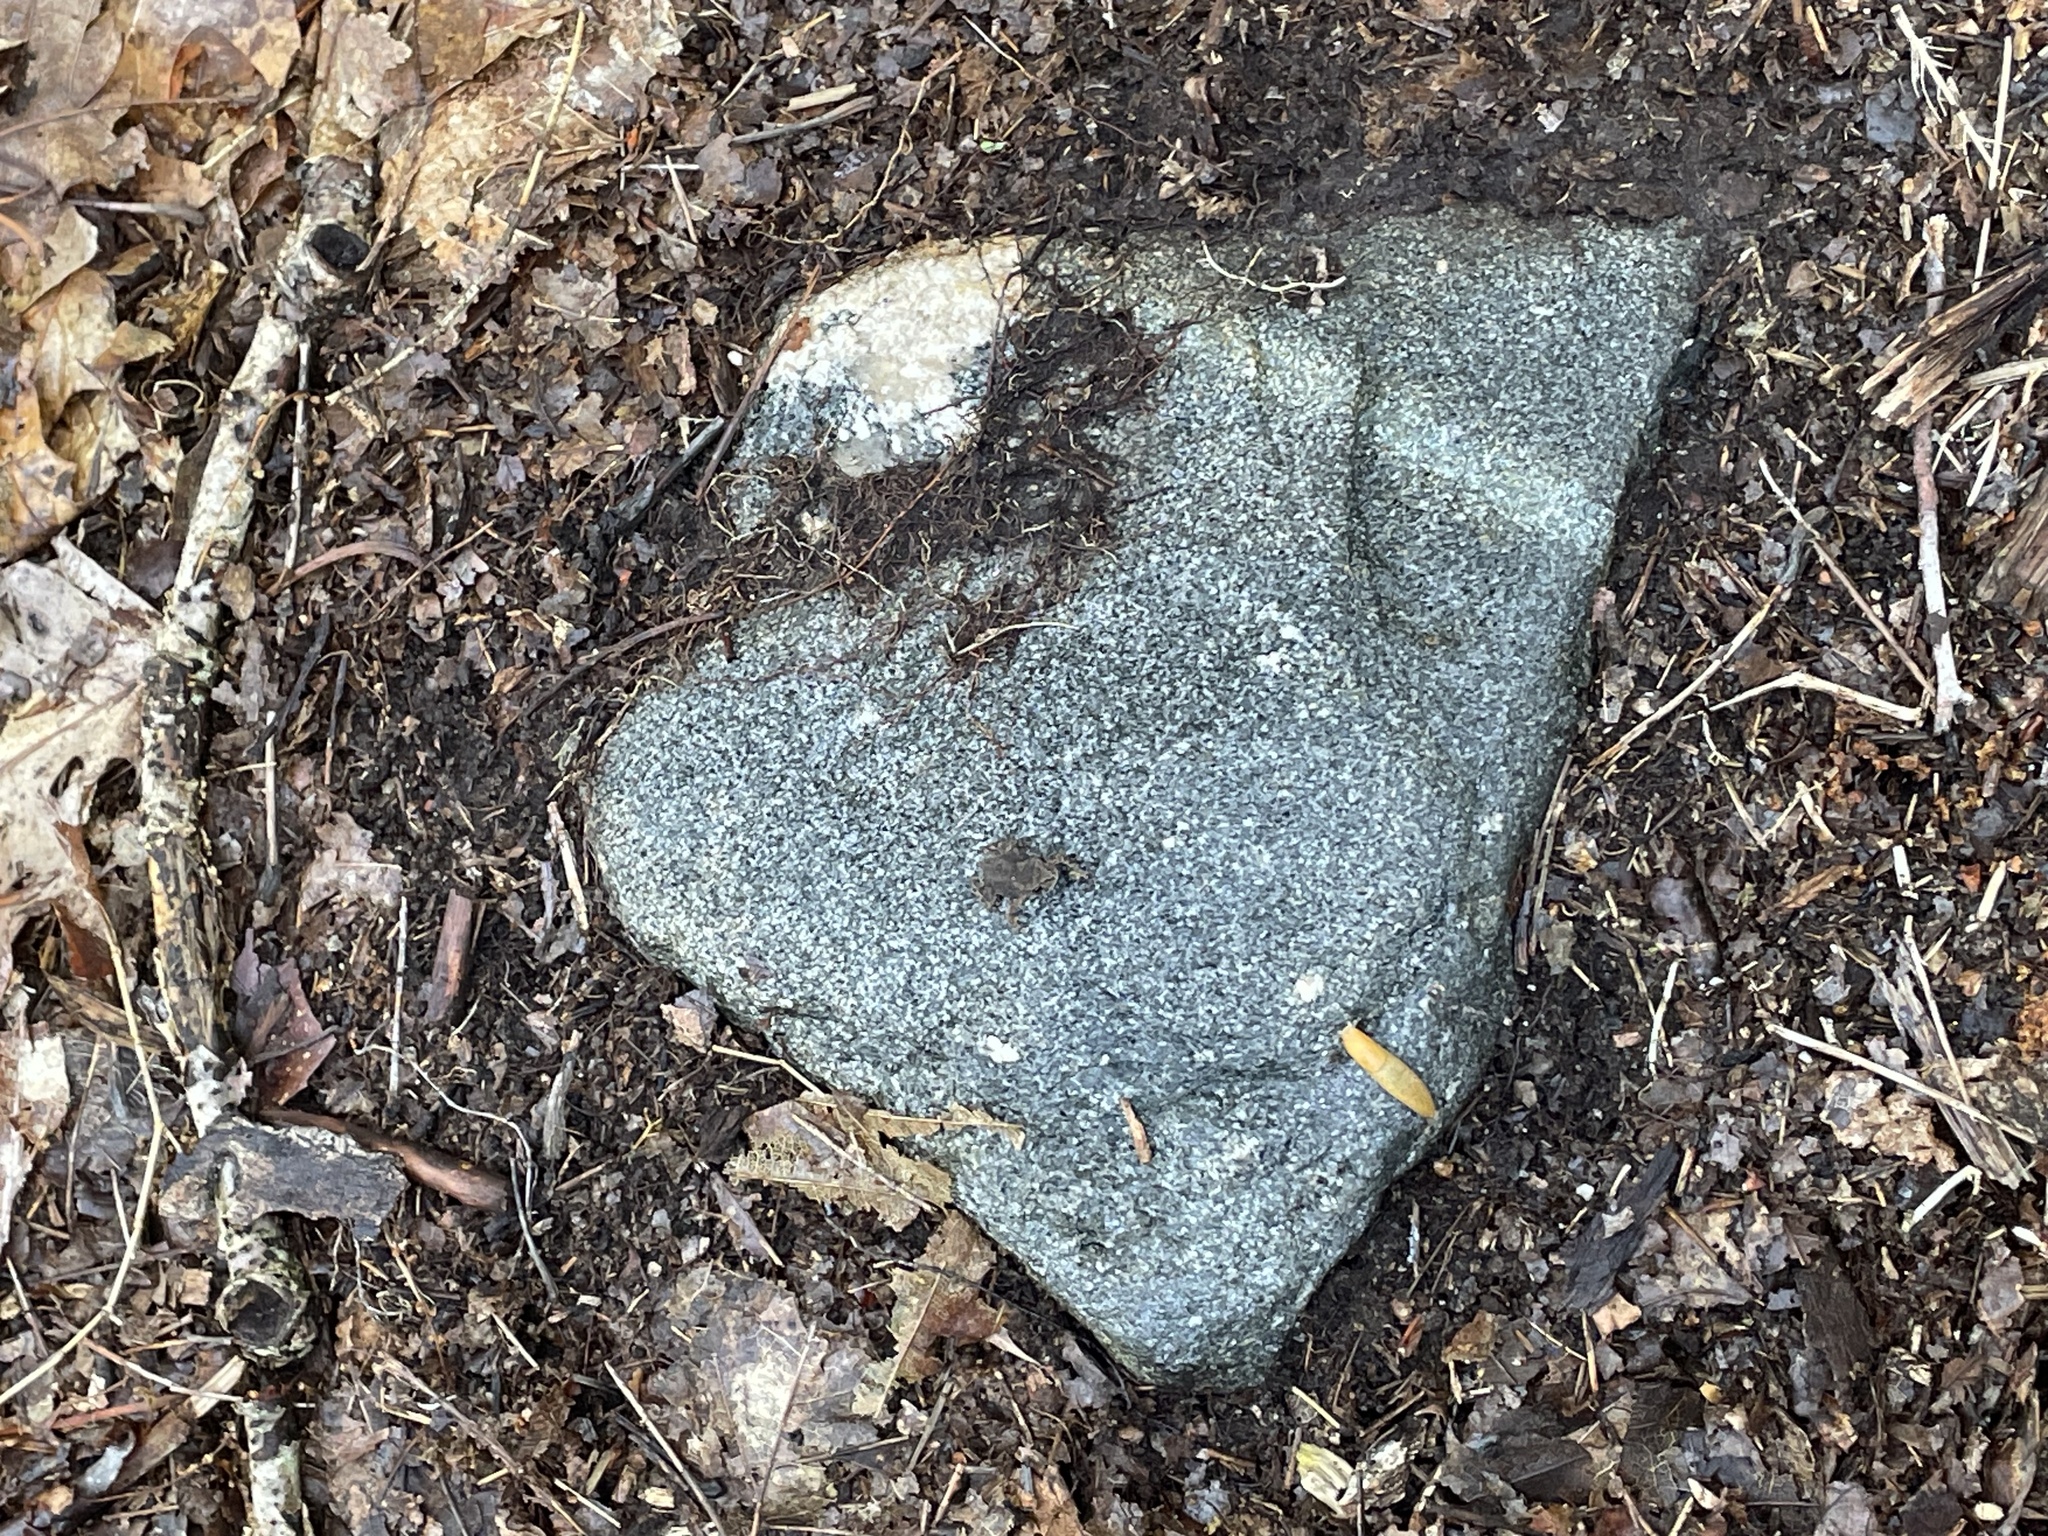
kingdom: Animalia
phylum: Chordata
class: Amphibia
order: Anura
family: Bufonidae
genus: Anaxyrus
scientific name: Anaxyrus americanus
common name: American toad
